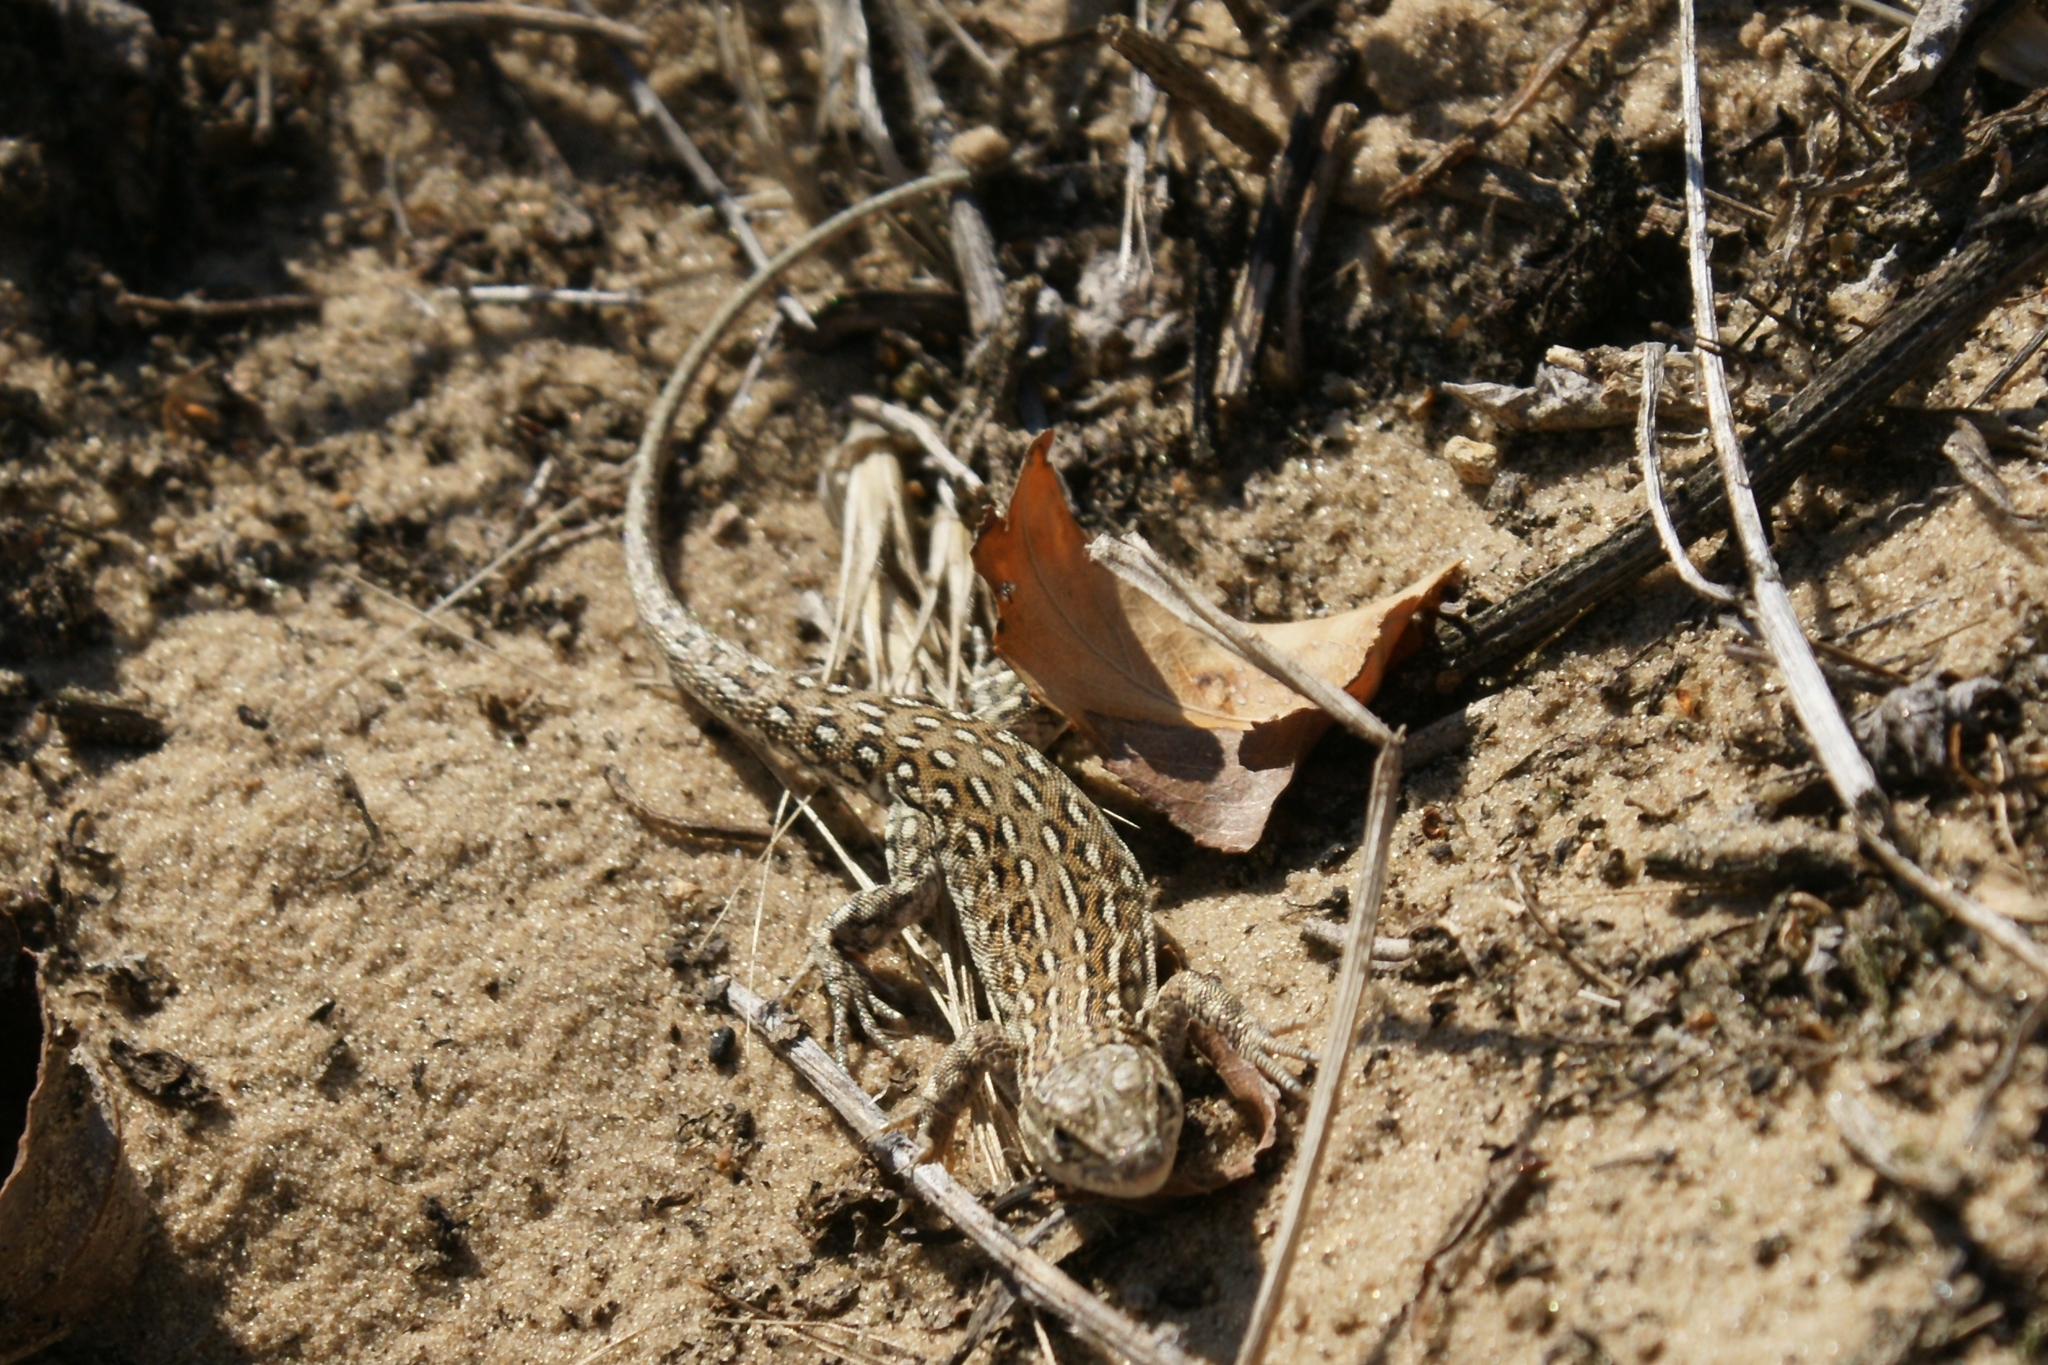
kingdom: Animalia
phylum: Chordata
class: Squamata
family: Lacertidae
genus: Eremias
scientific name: Eremias arguta
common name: Racerunner
